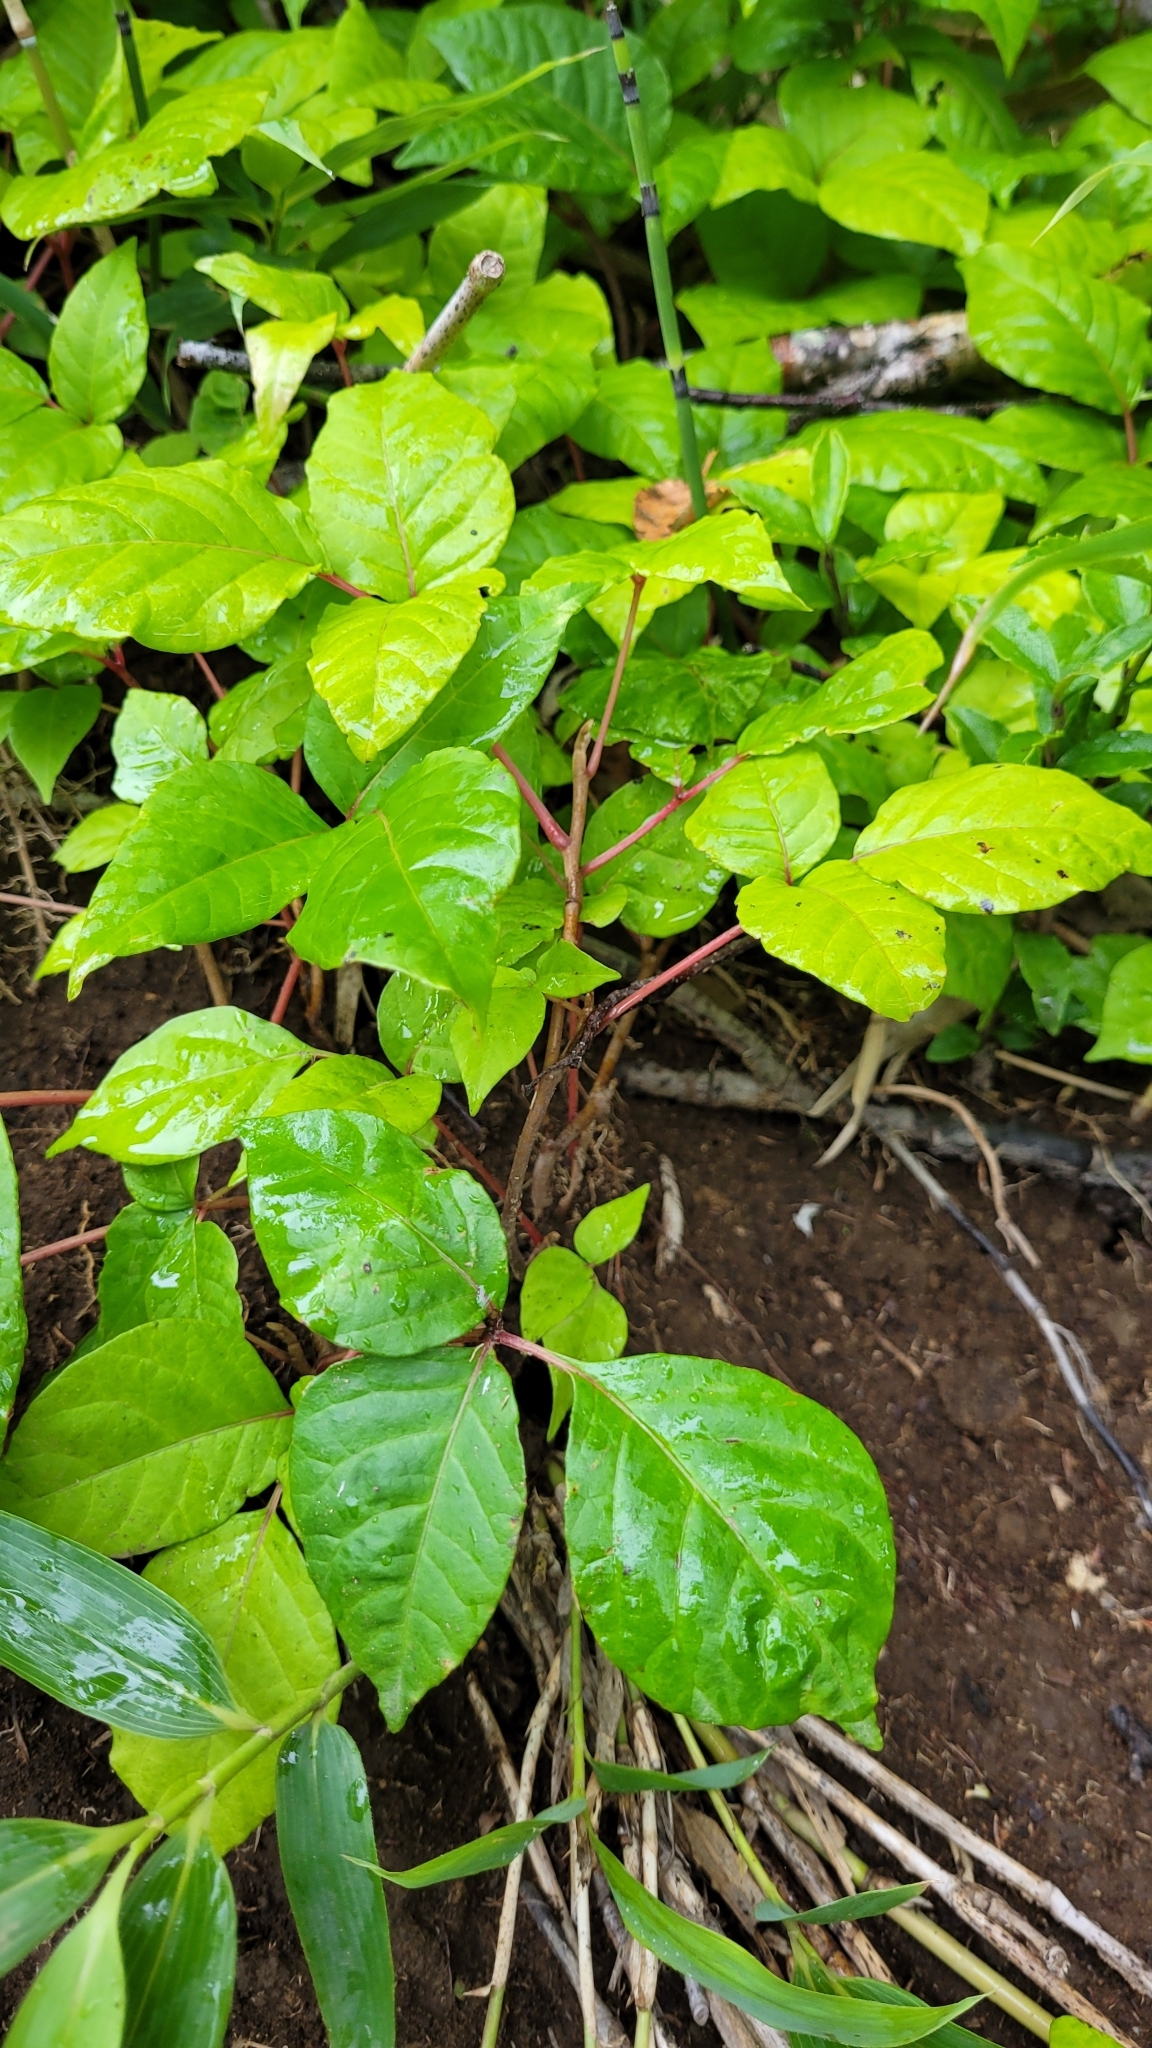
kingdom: Plantae
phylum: Tracheophyta
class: Magnoliopsida
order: Sapindales
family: Anacardiaceae
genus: Toxicodendron
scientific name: Toxicodendron orientale
